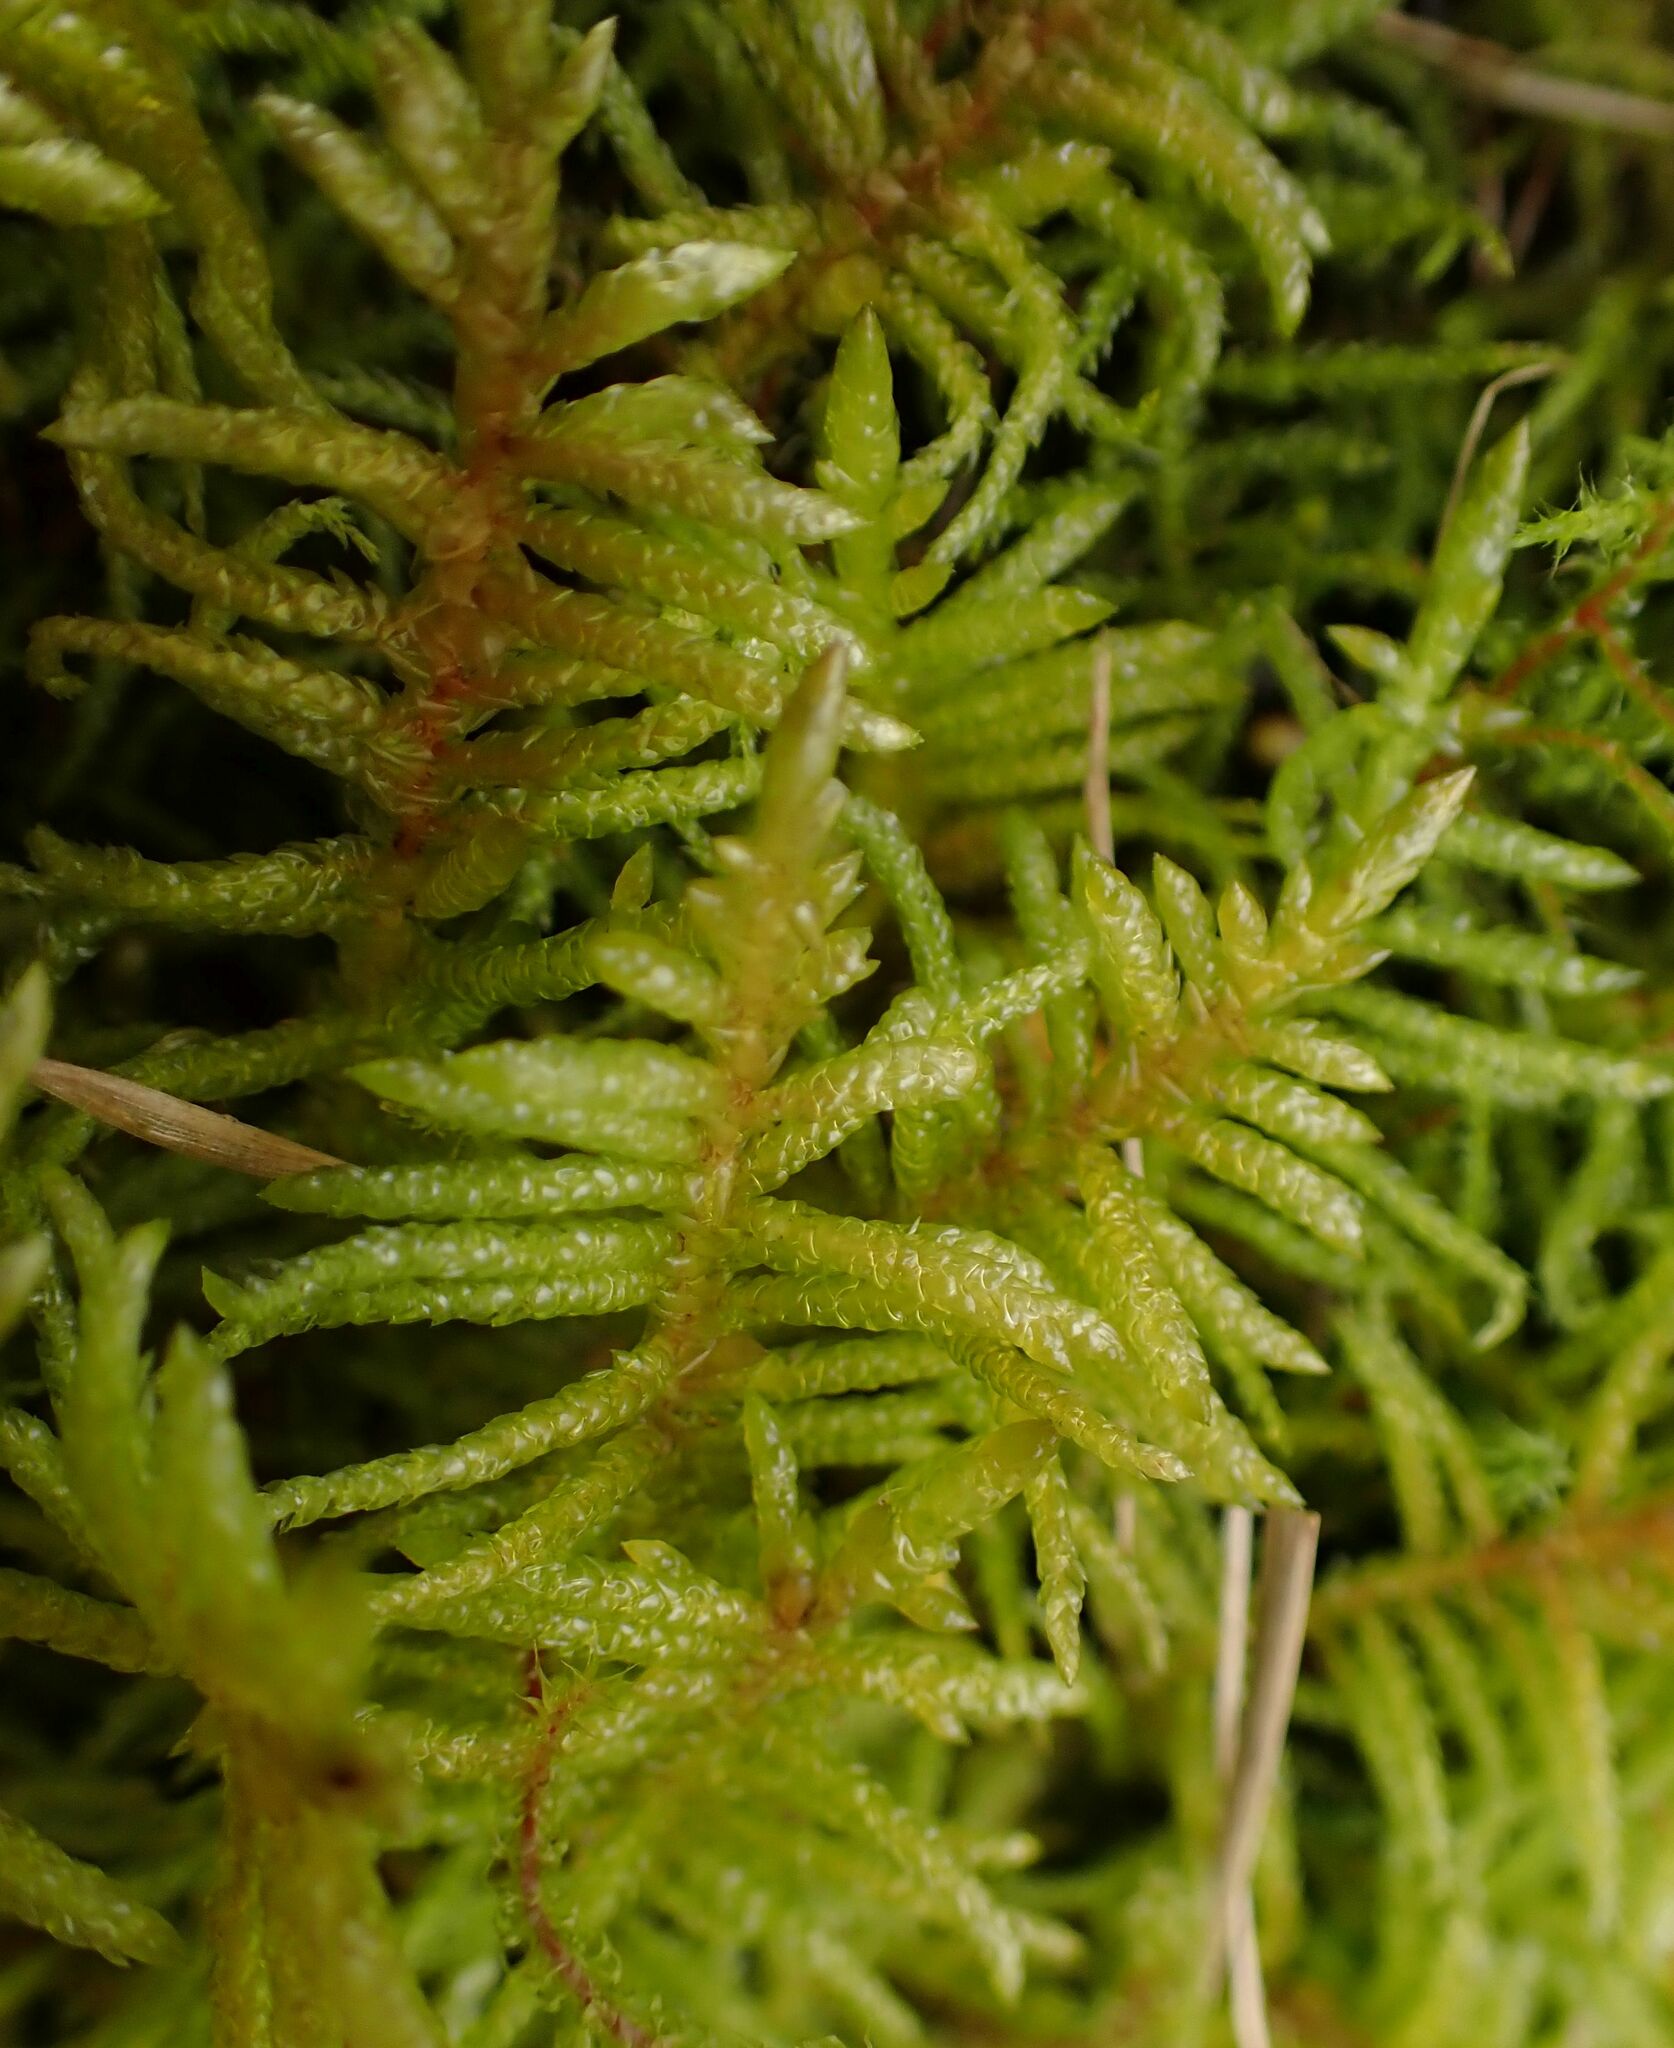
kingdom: Plantae
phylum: Bryophyta
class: Bryopsida
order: Hypnales
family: Brachytheciaceae
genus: Pseudoscleropodium
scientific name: Pseudoscleropodium purum
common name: Neat feather-moss
